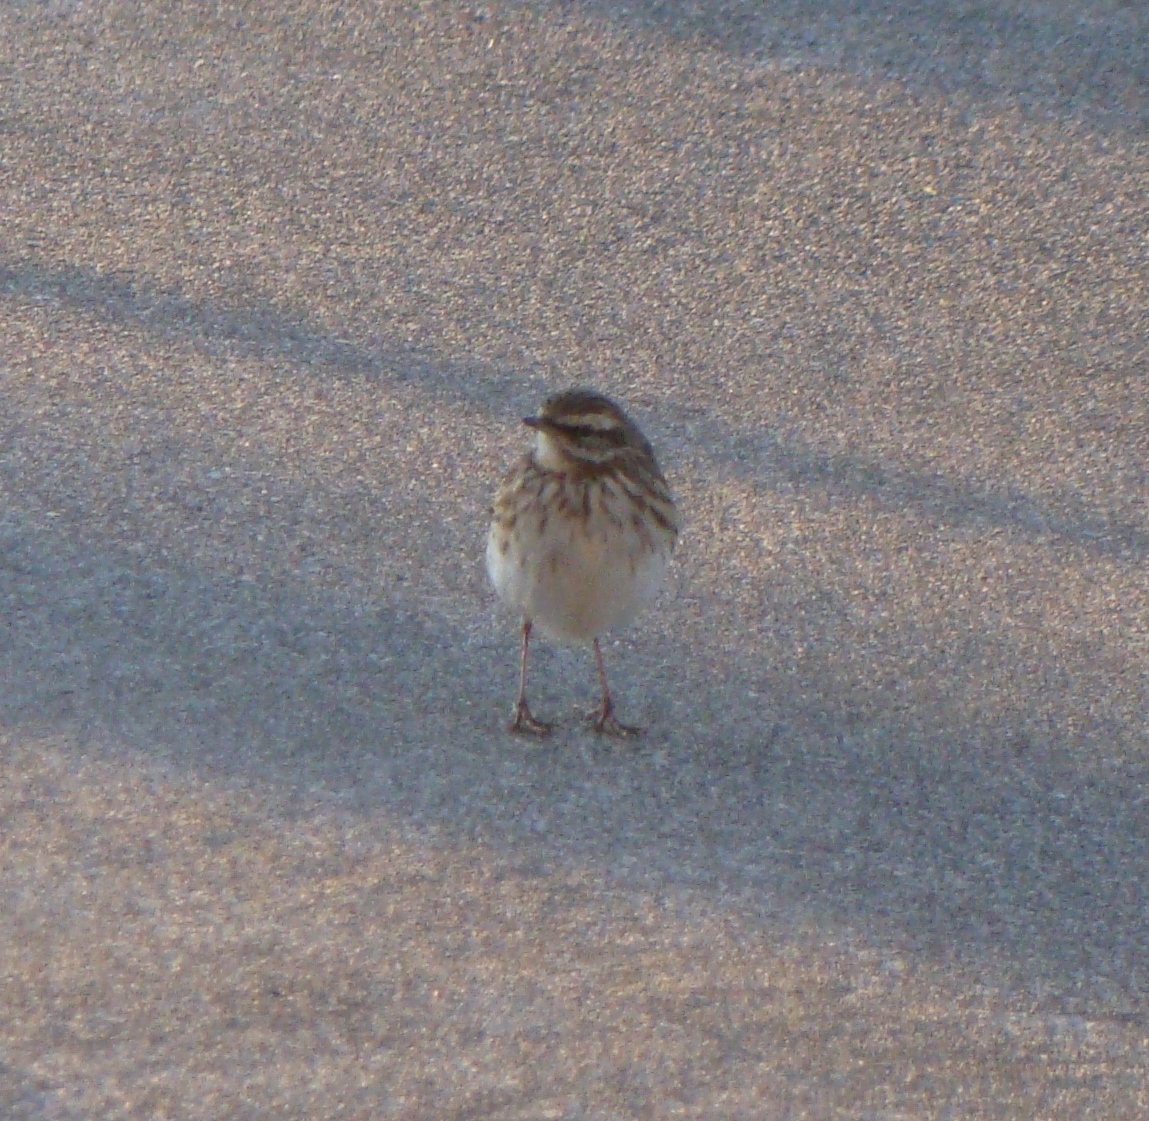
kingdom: Animalia
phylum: Chordata
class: Aves
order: Passeriformes
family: Motacillidae
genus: Anthus
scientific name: Anthus novaeseelandiae
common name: New zealand pipit
